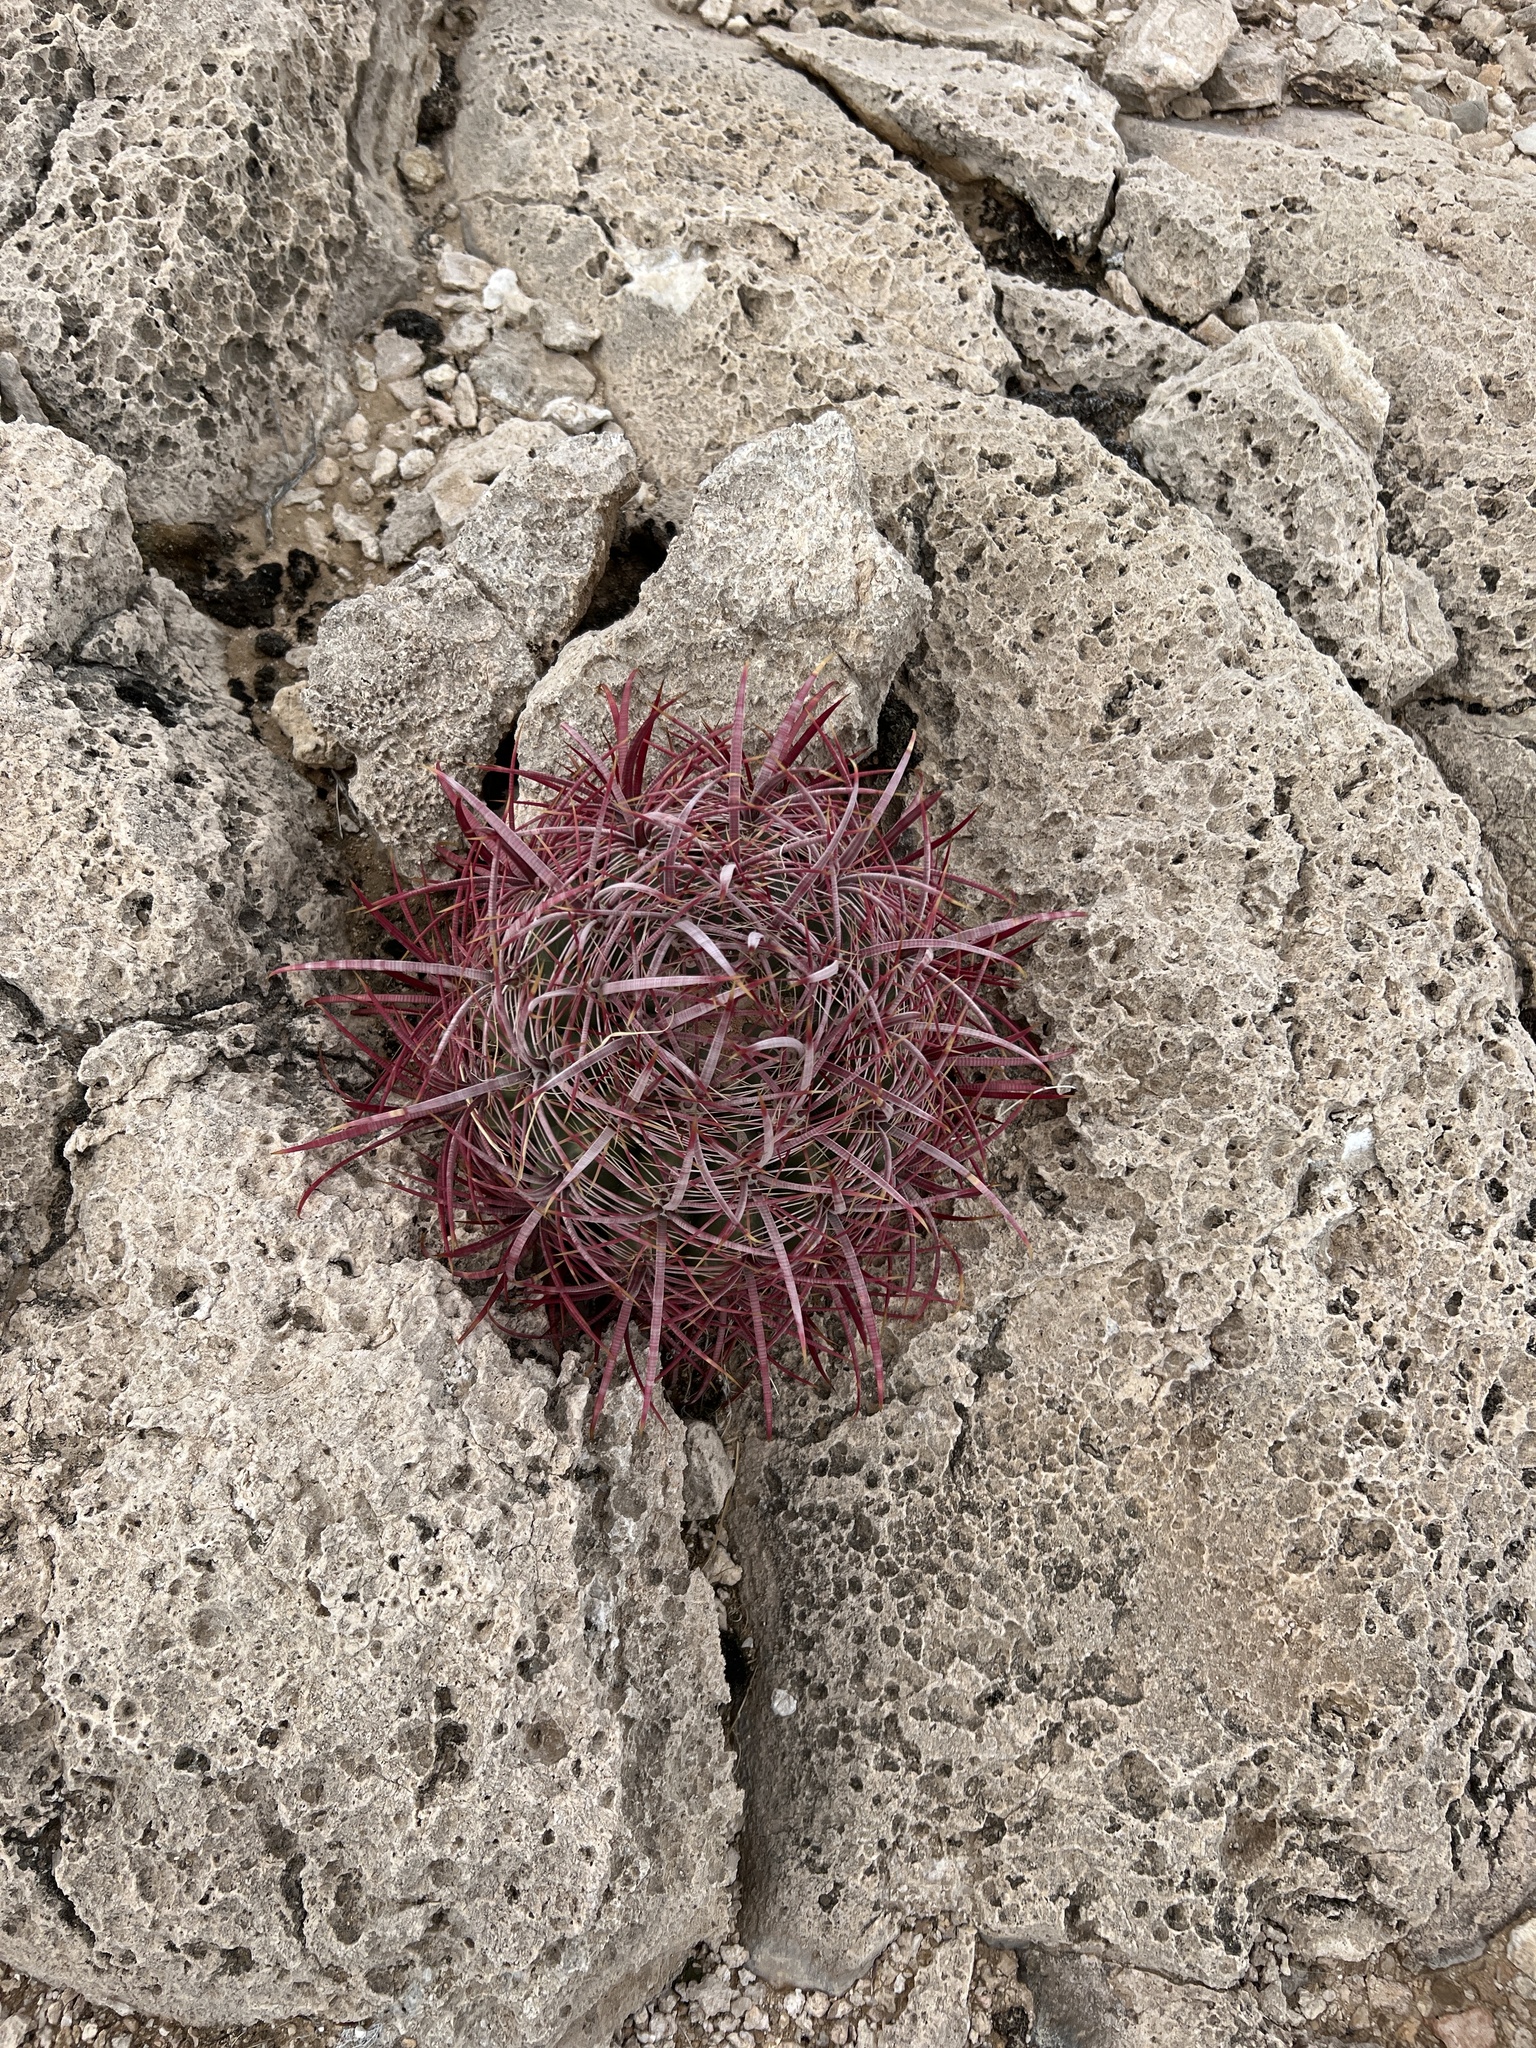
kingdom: Plantae
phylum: Tracheophyta
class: Magnoliopsida
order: Caryophyllales
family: Cactaceae
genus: Ferocactus
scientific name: Ferocactus cylindraceus
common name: California barrel cactus
